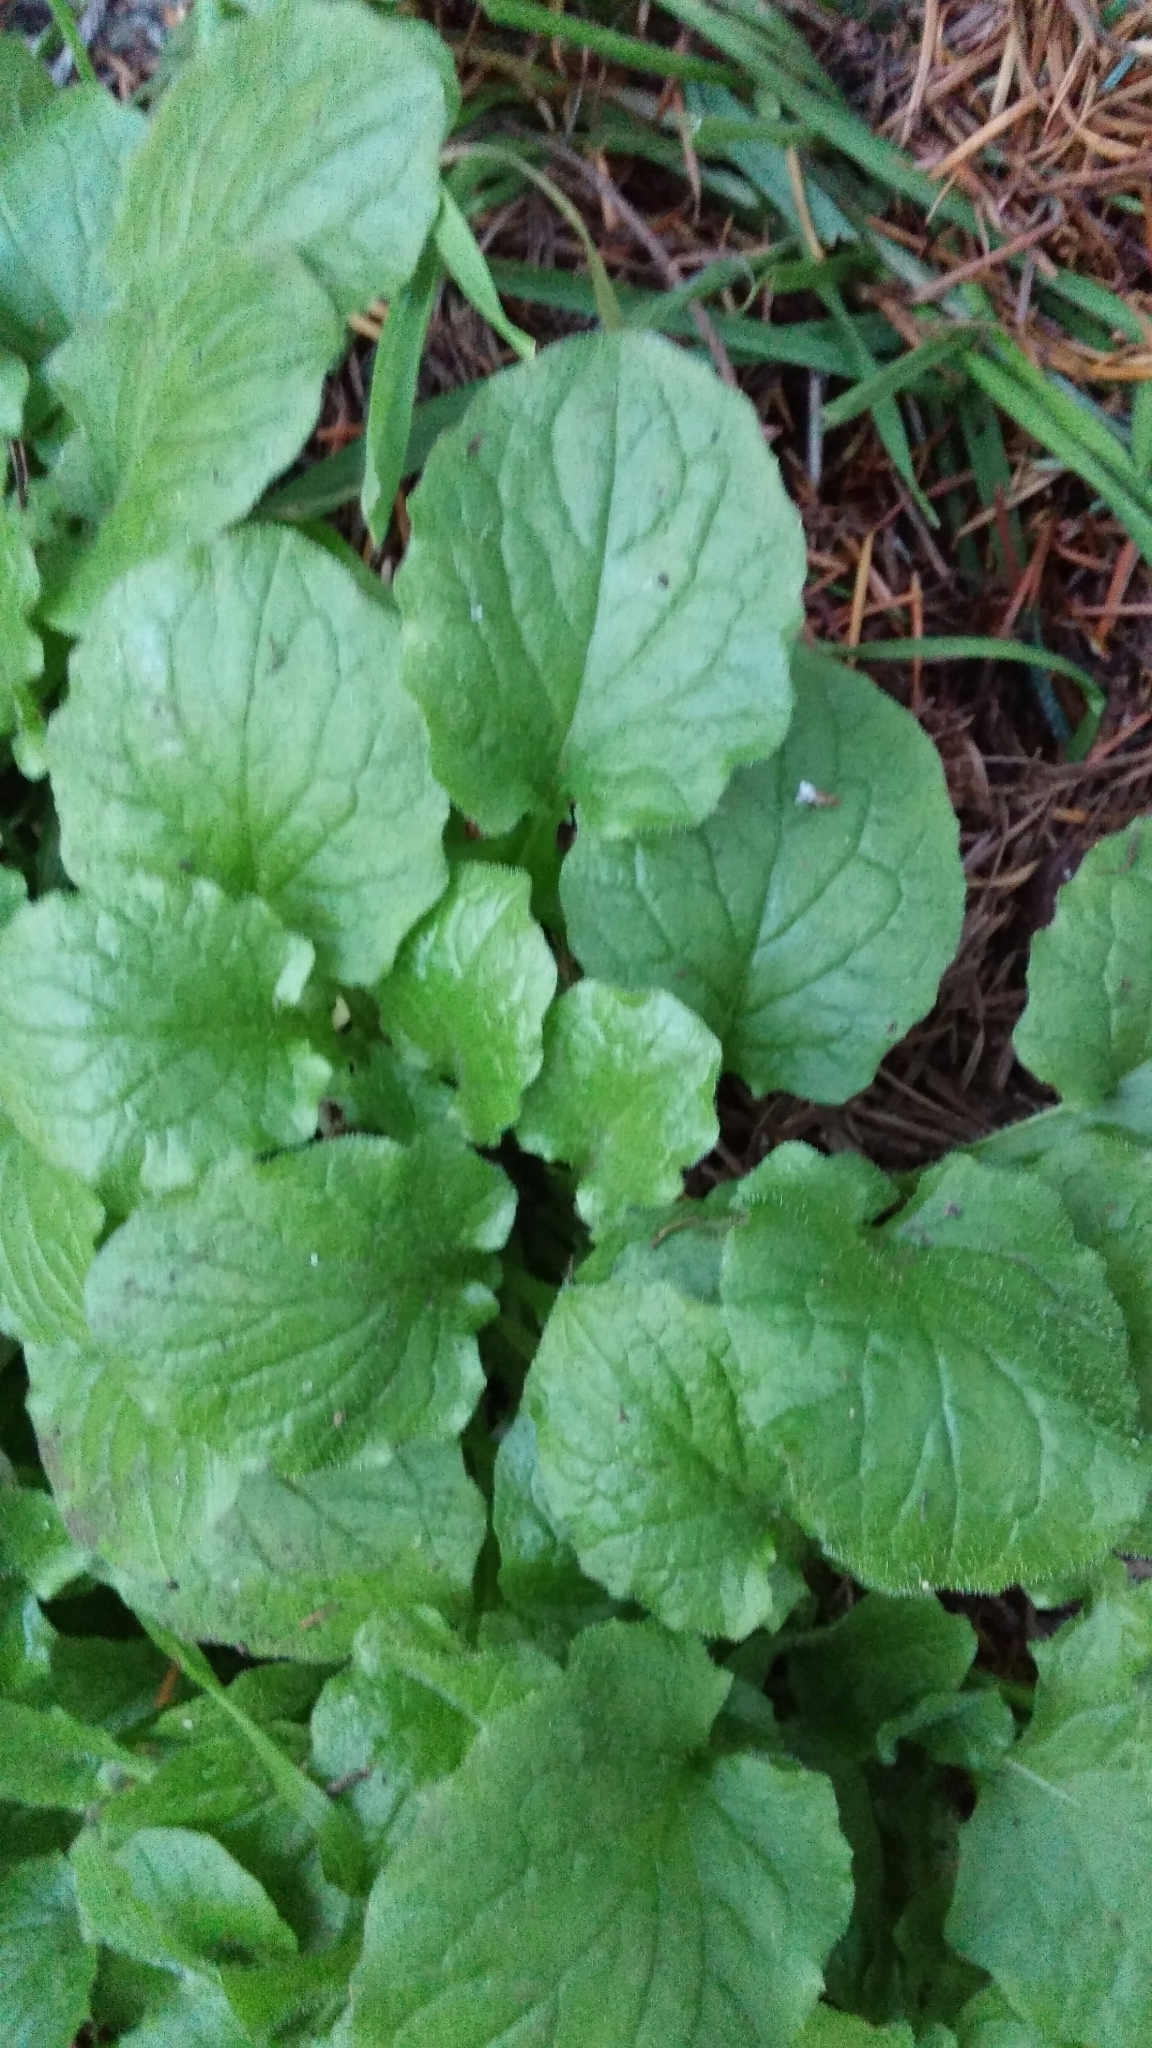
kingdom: Plantae
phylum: Tracheophyta
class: Magnoliopsida
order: Asterales
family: Asteraceae
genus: Lapsana
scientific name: Lapsana communis
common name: Nipplewort
